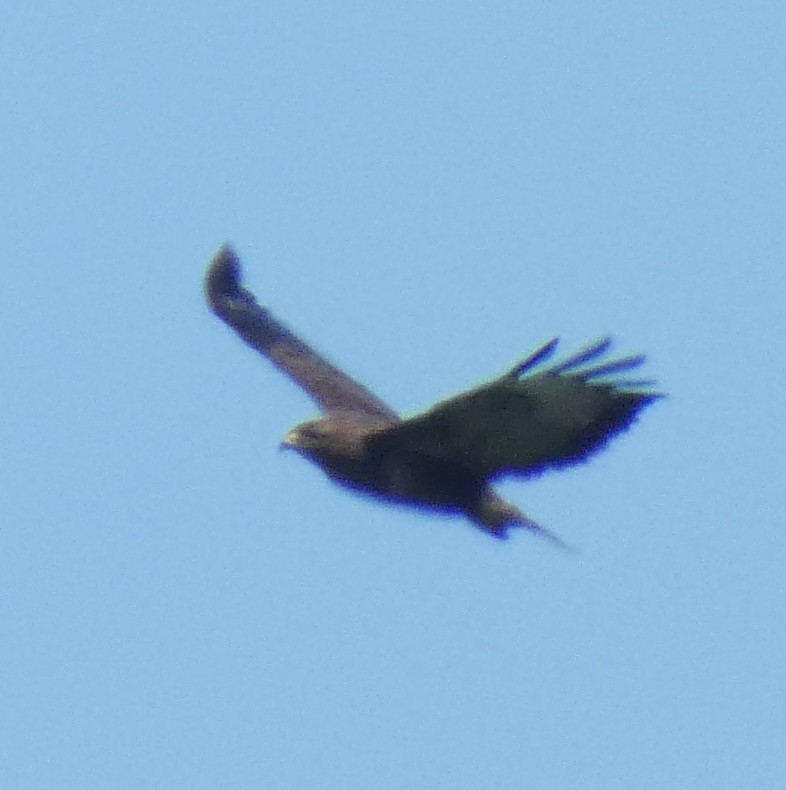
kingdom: Animalia
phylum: Chordata
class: Aves
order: Accipitriformes
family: Accipitridae
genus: Buteo
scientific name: Buteo buteo
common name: Common buzzard
